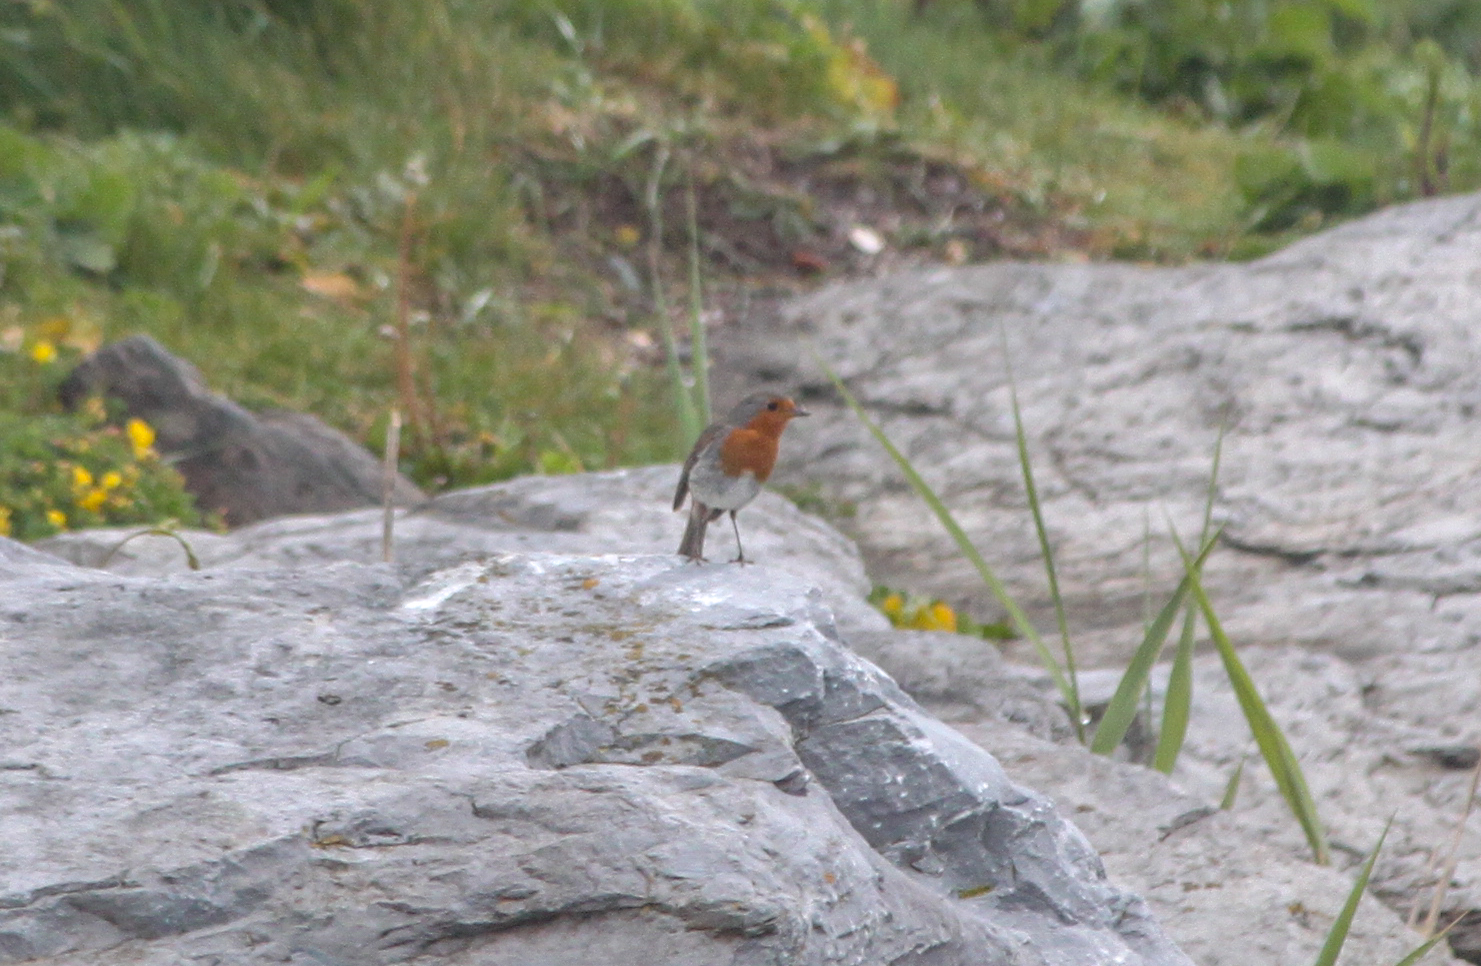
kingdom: Animalia
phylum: Chordata
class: Aves
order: Passeriformes
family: Muscicapidae
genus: Erithacus
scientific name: Erithacus rubecula
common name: European robin
